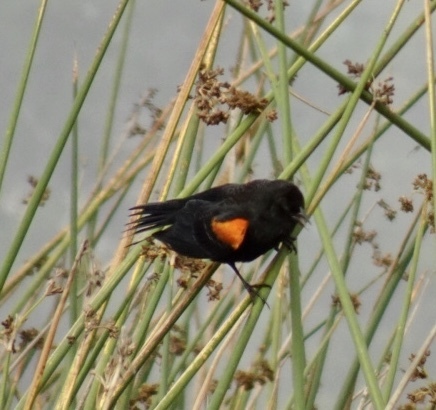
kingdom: Animalia
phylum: Chordata
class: Aves
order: Passeriformes
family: Icteridae
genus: Agelaius
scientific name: Agelaius phoeniceus
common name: Red-winged blackbird
